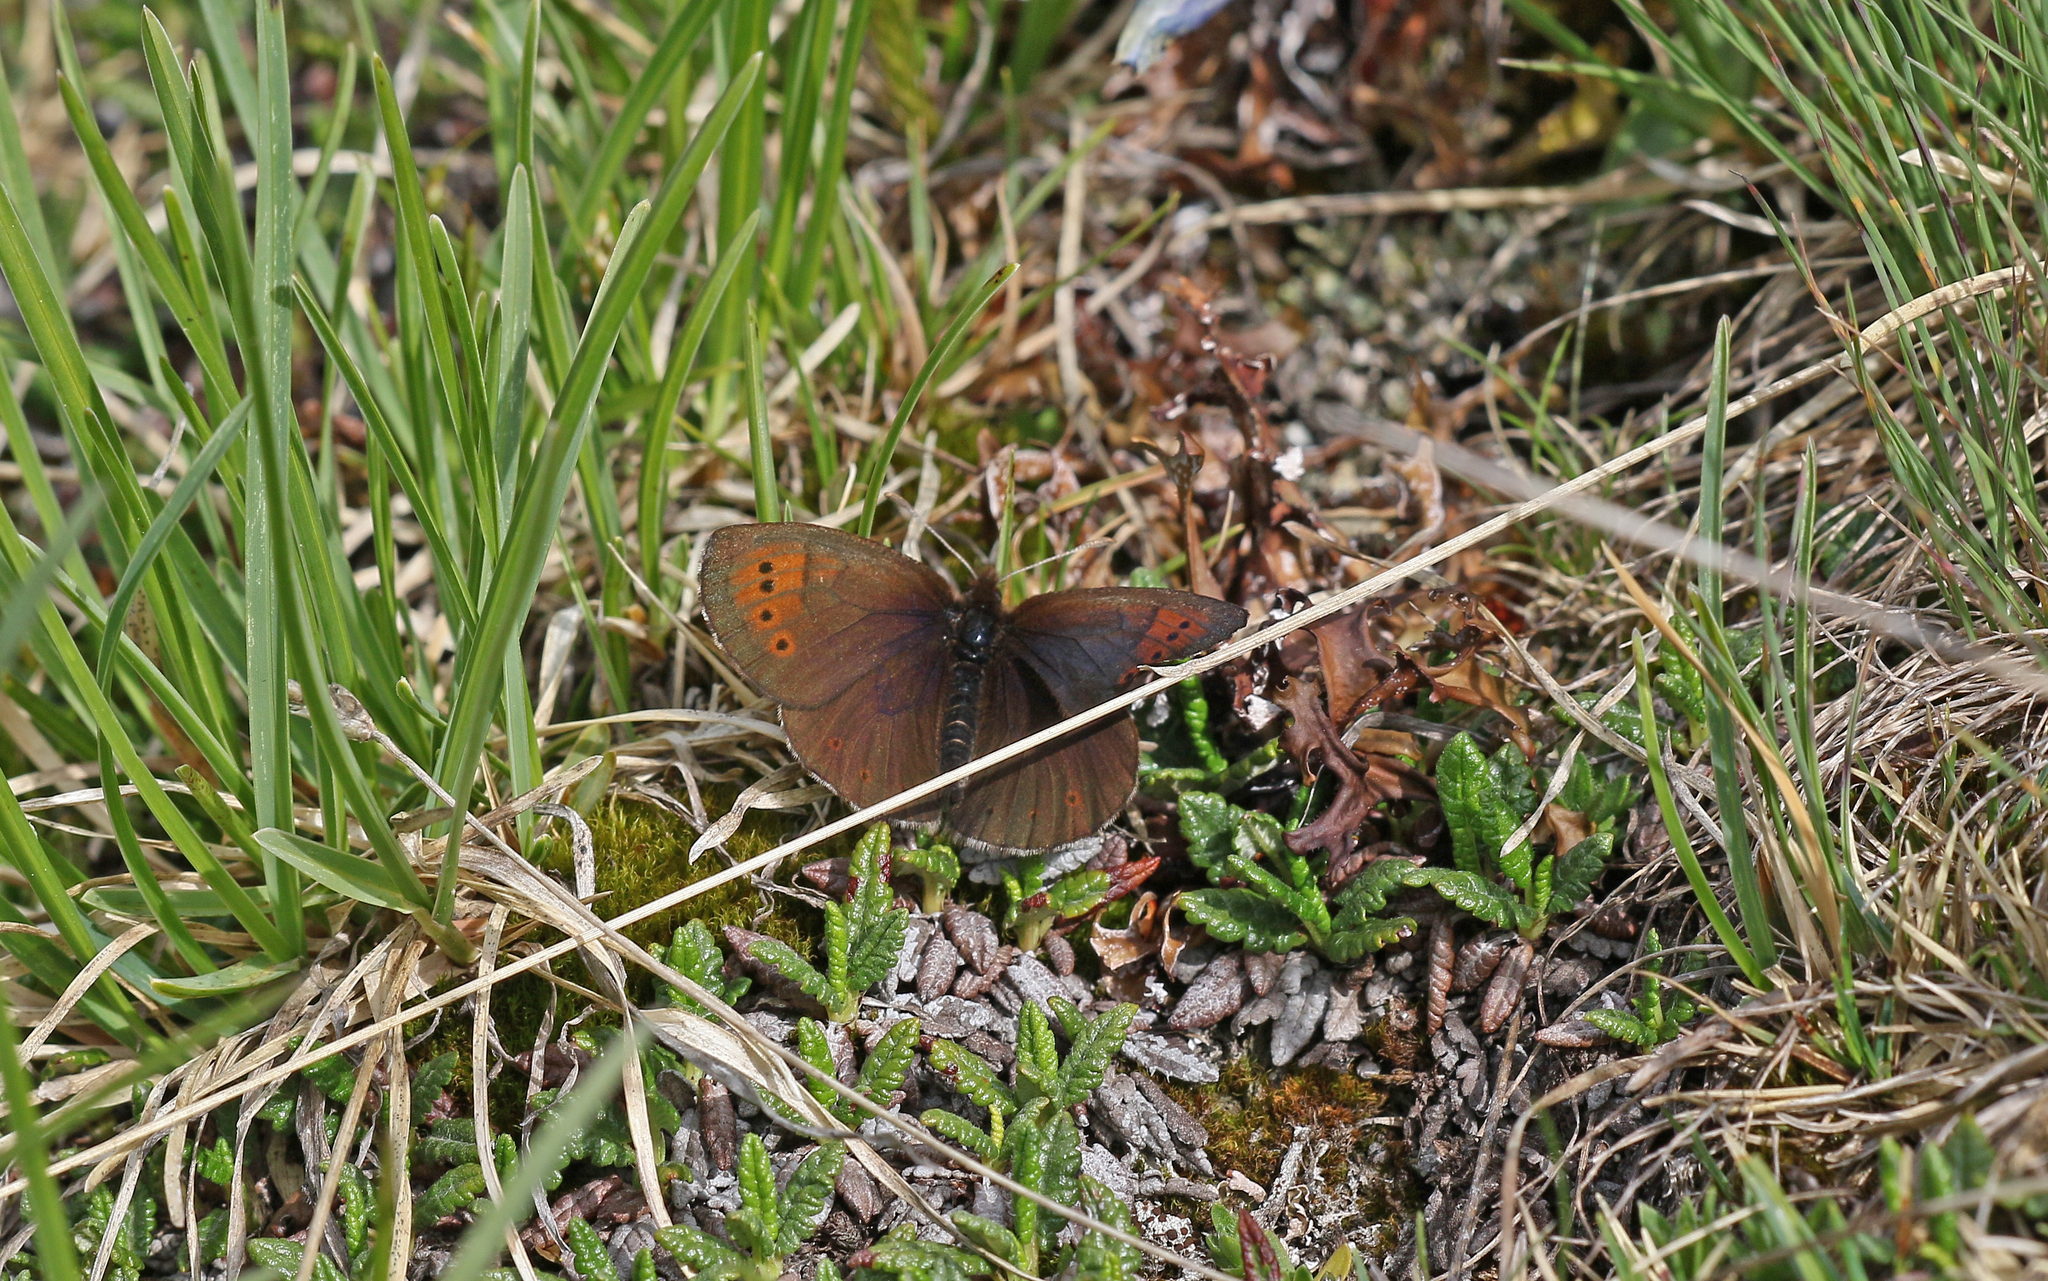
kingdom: Animalia
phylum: Arthropoda
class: Insecta
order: Lepidoptera
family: Nymphalidae
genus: Erebia
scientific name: Erebia pandrose
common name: Dewy ringlet
